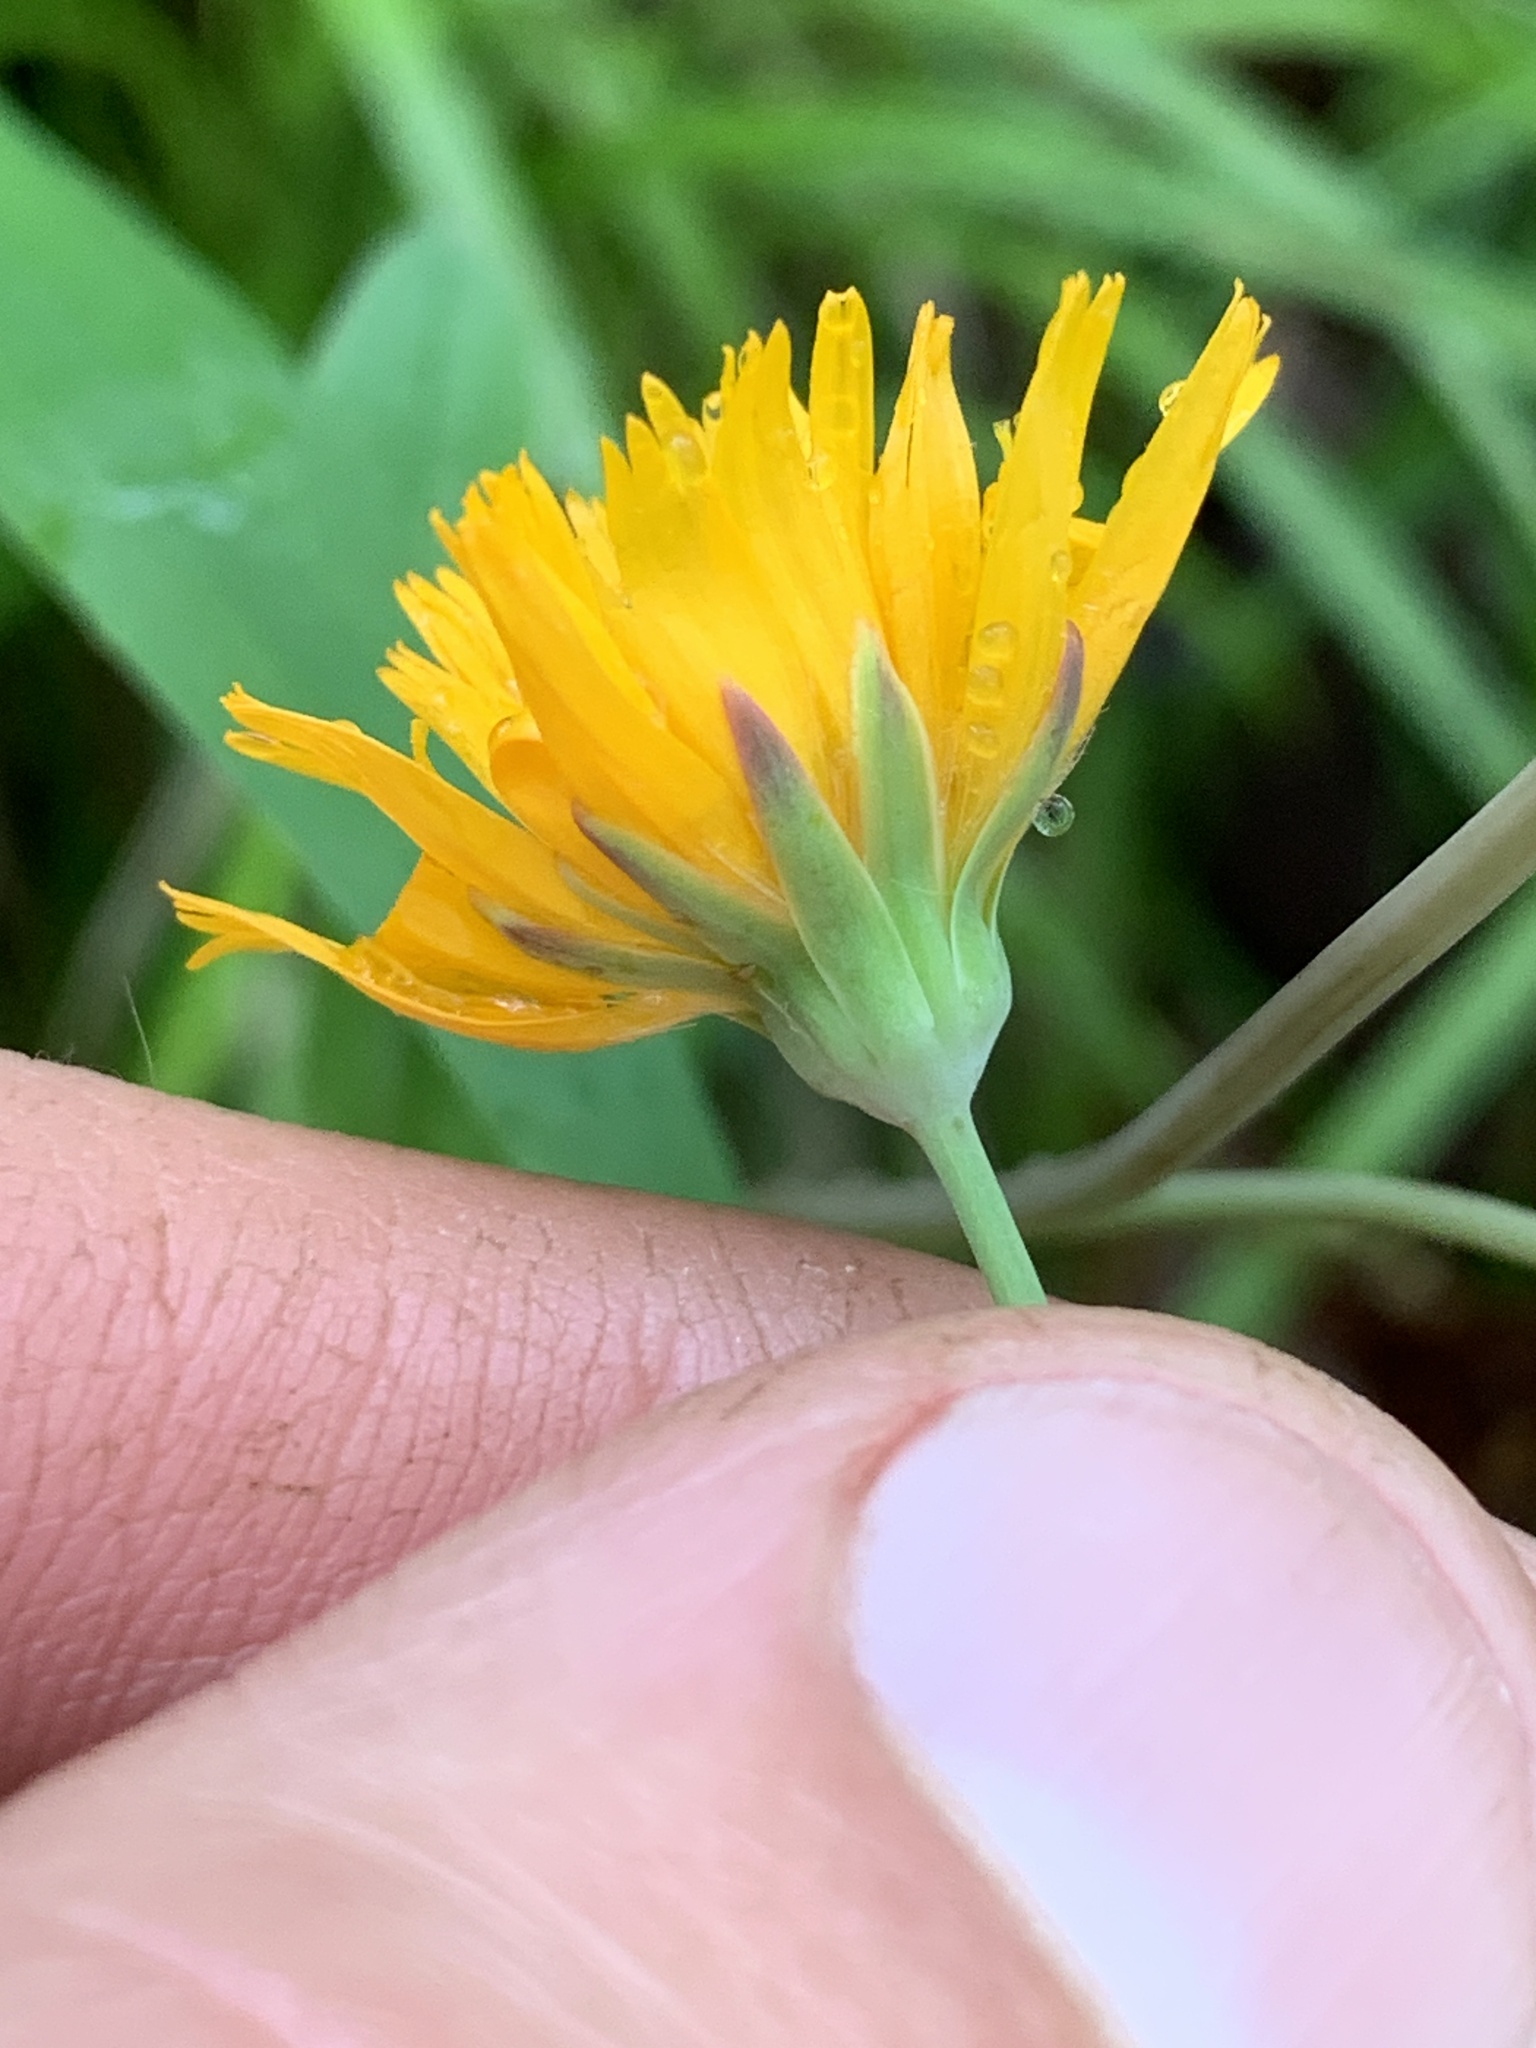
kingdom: Plantae
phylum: Tracheophyta
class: Magnoliopsida
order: Asterales
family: Asteraceae
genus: Krigia
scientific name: Krigia biflora
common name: Orange dwarf-dandelion
